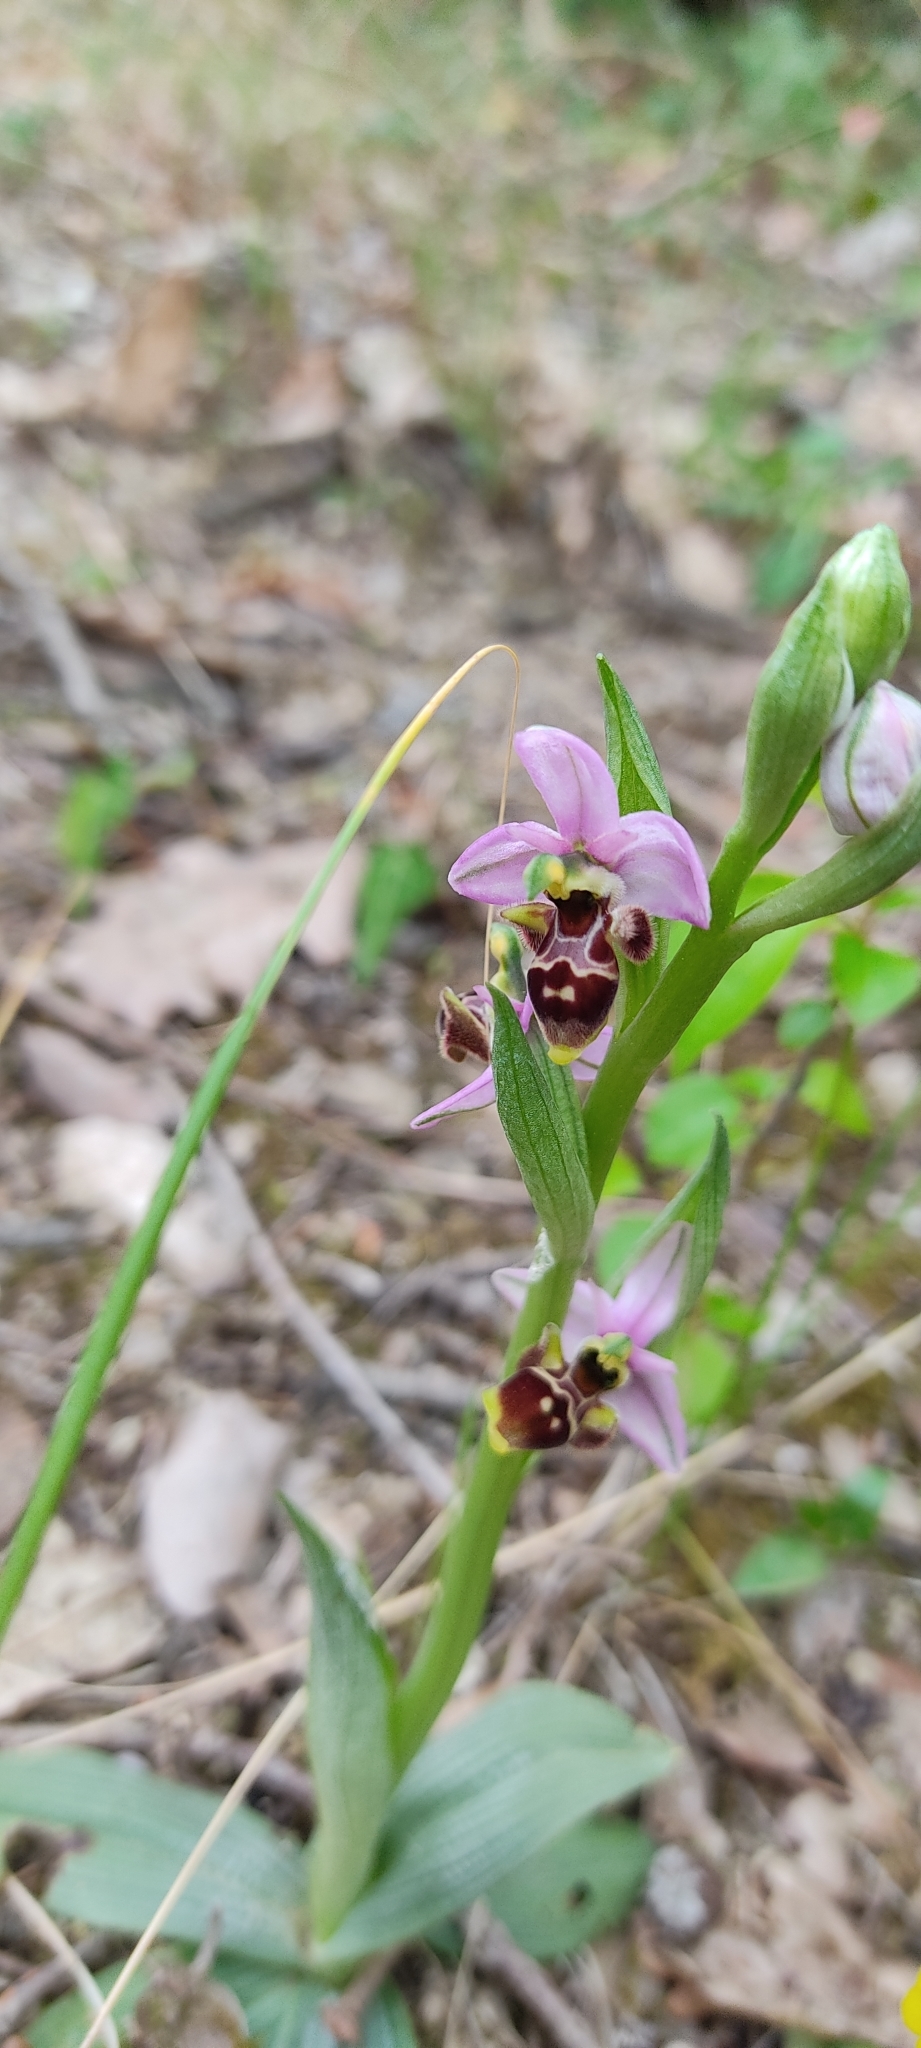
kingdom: Plantae
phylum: Tracheophyta
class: Liliopsida
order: Asparagales
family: Orchidaceae
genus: Ophrys
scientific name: Ophrys scolopax
